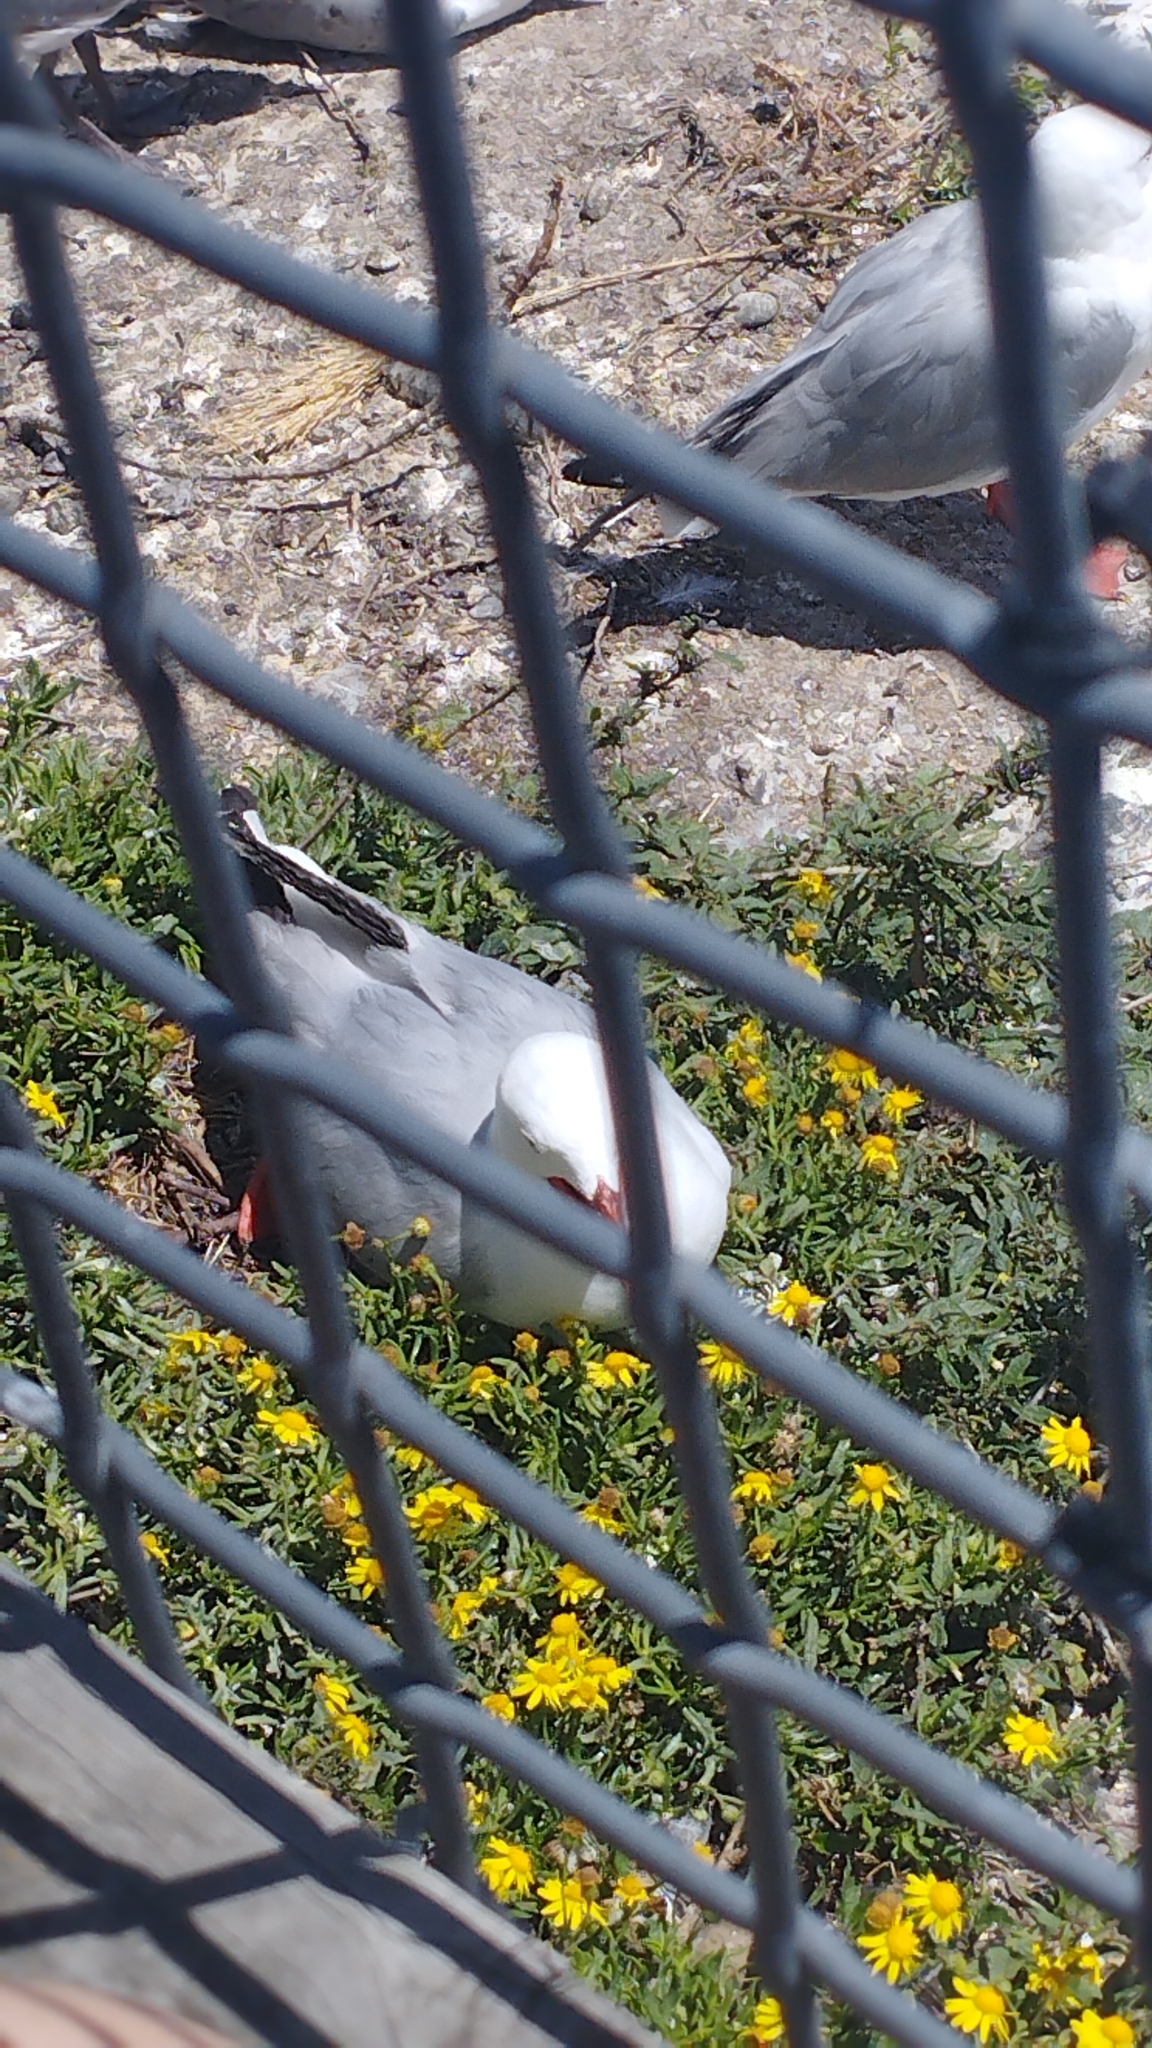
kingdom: Animalia
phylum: Chordata
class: Aves
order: Charadriiformes
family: Laridae
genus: Chroicocephalus
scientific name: Chroicocephalus novaehollandiae
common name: Silver gull
